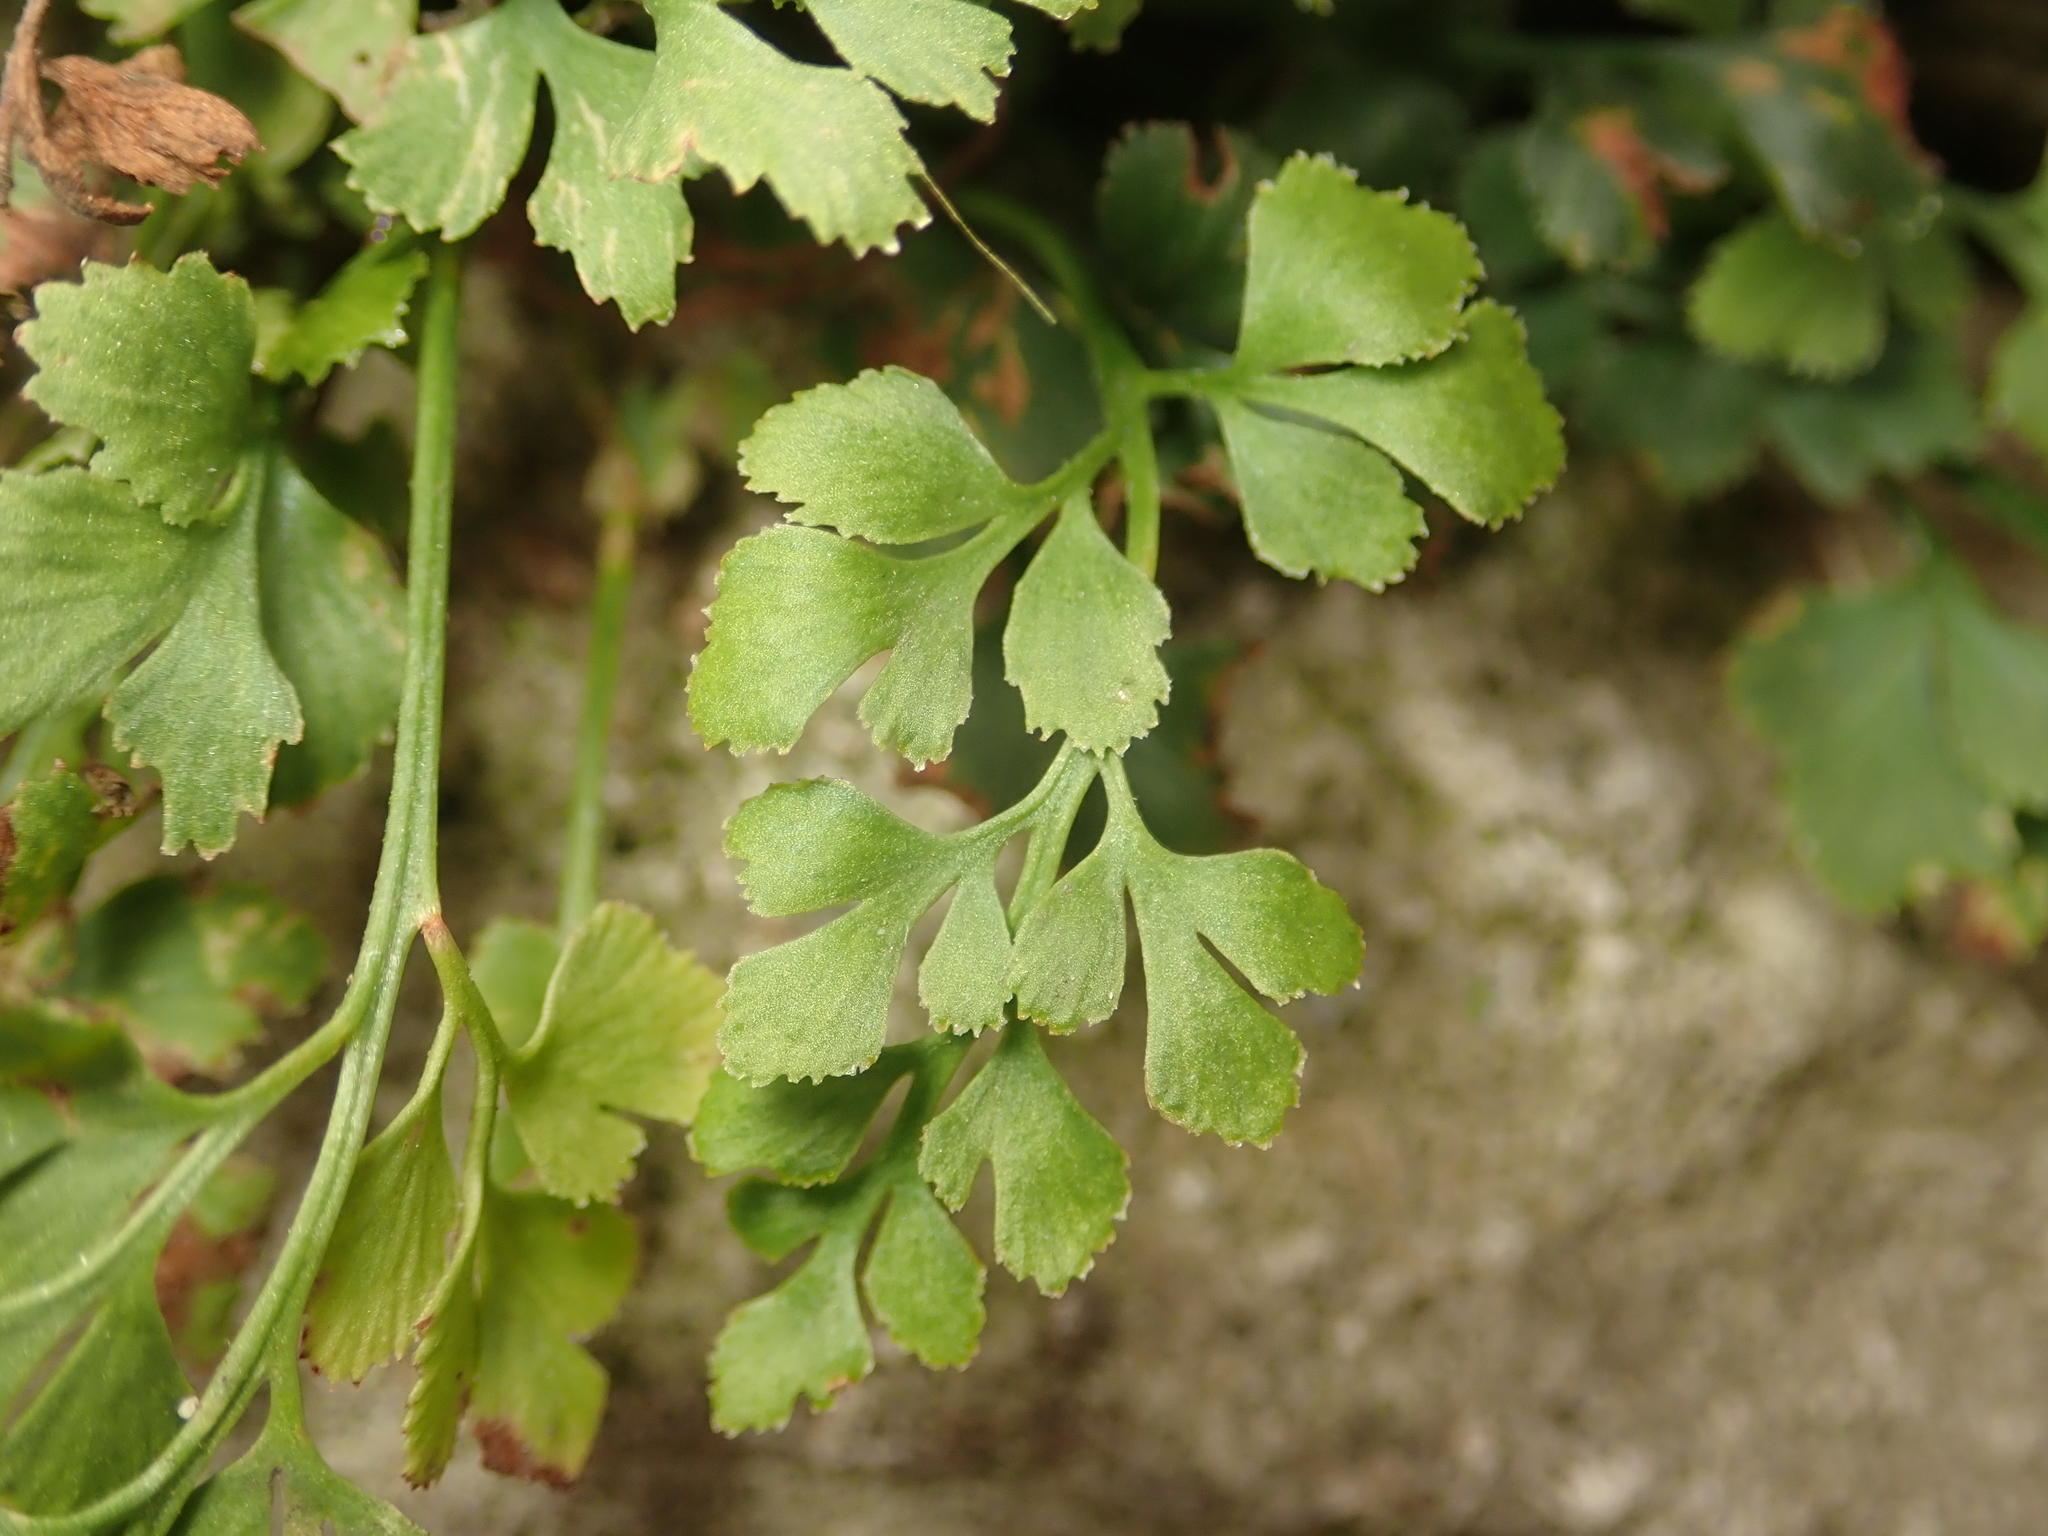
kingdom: Plantae
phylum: Tracheophyta
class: Polypodiopsida
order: Polypodiales
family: Aspleniaceae
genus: Asplenium
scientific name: Asplenium ruta-muraria
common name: Wall-rue
